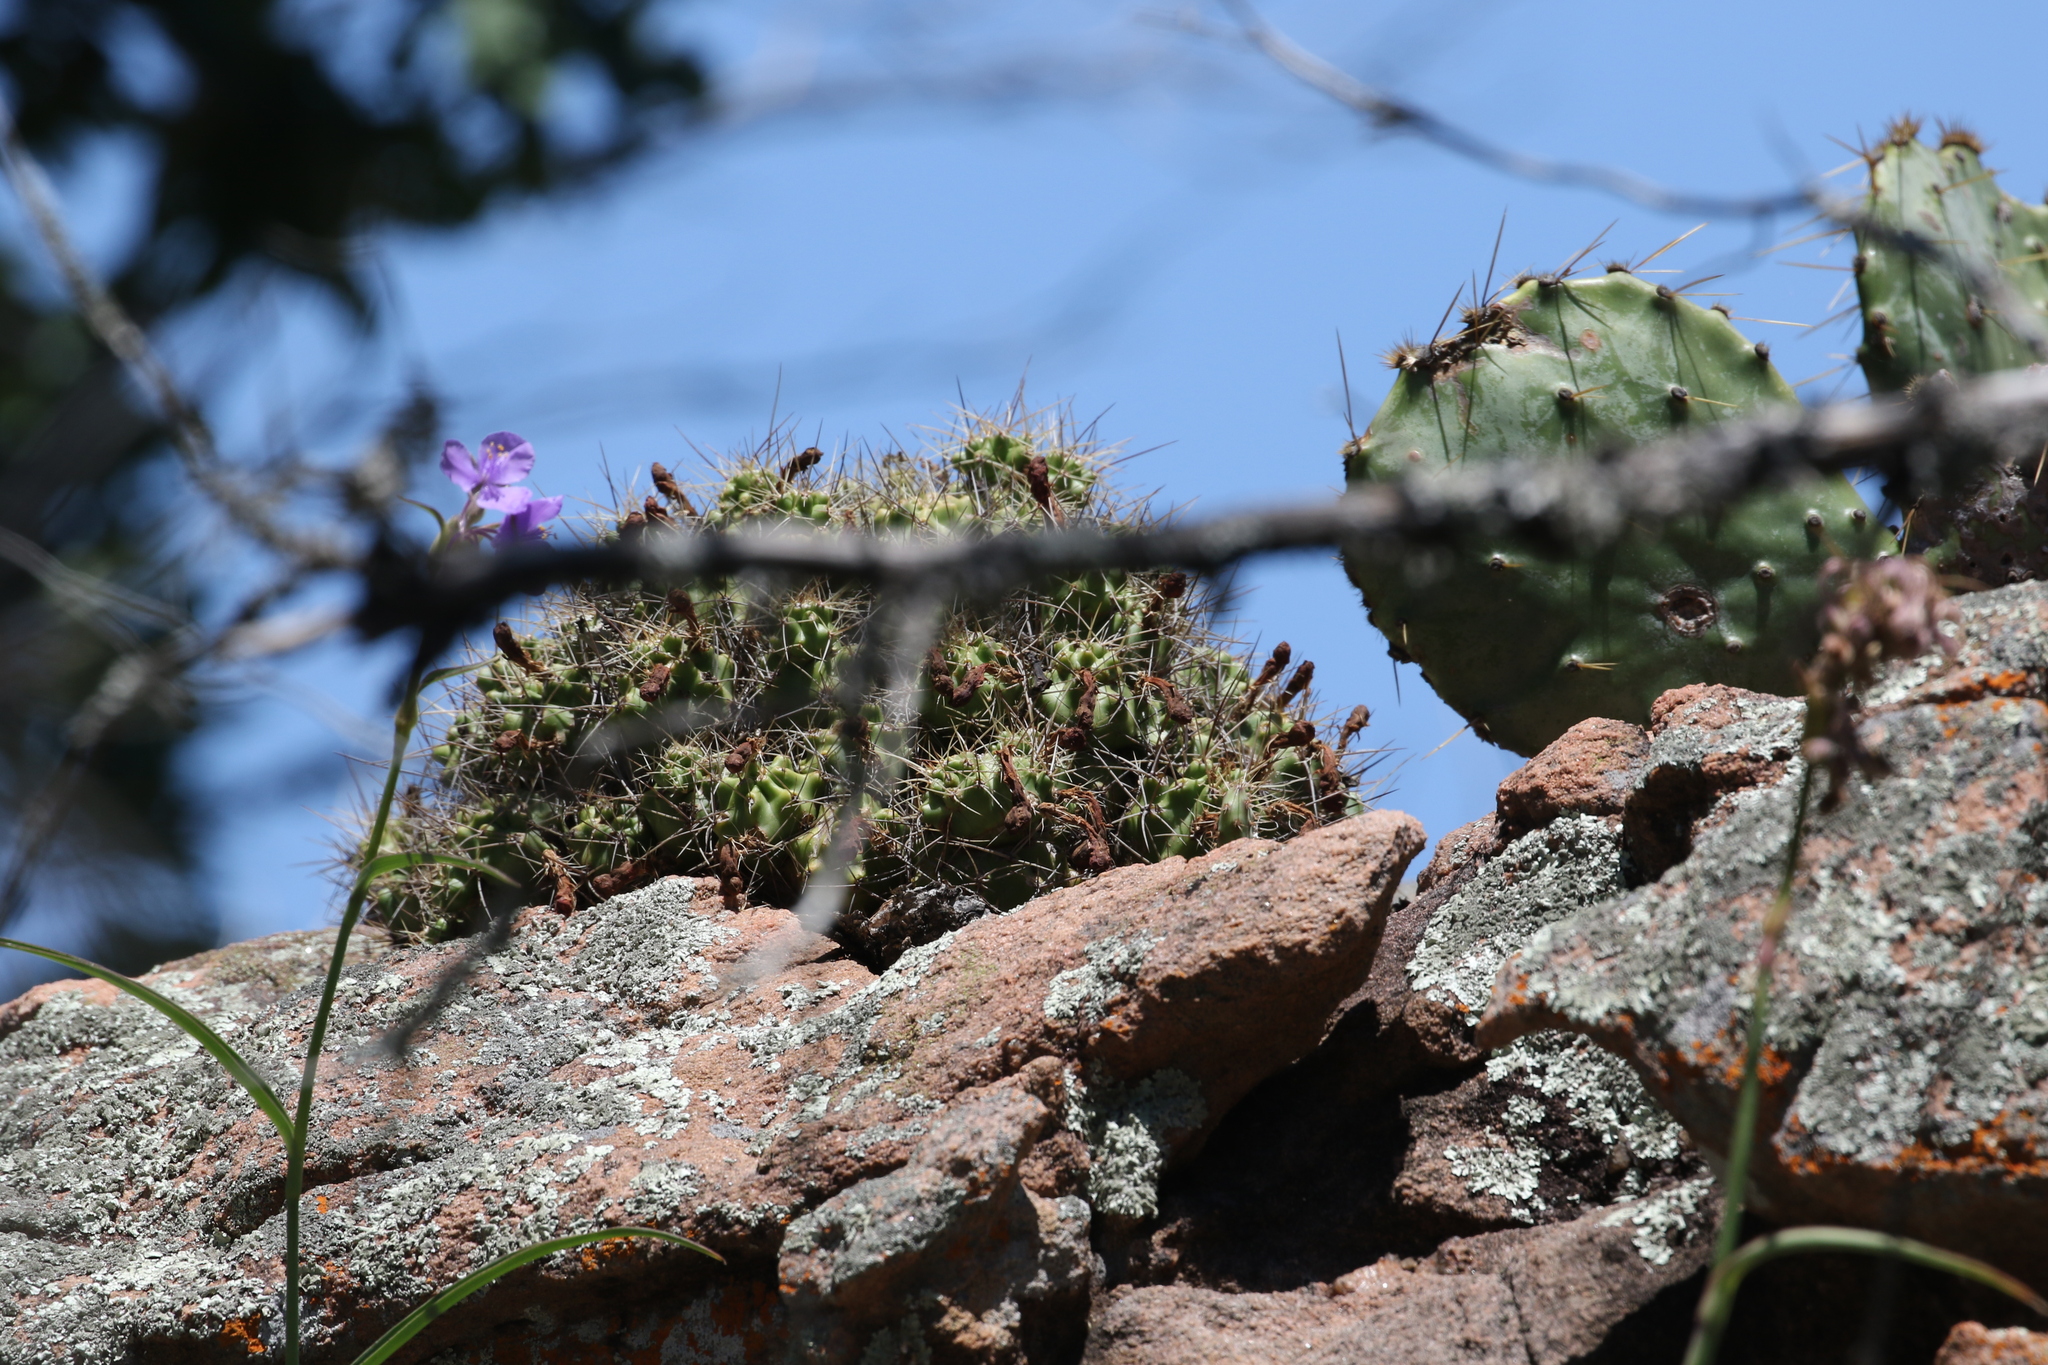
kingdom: Plantae
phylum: Tracheophyta
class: Magnoliopsida
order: Caryophyllales
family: Cactaceae
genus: Echinocereus
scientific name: Echinocereus coccineus
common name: Scarlet hedgehog cactus
